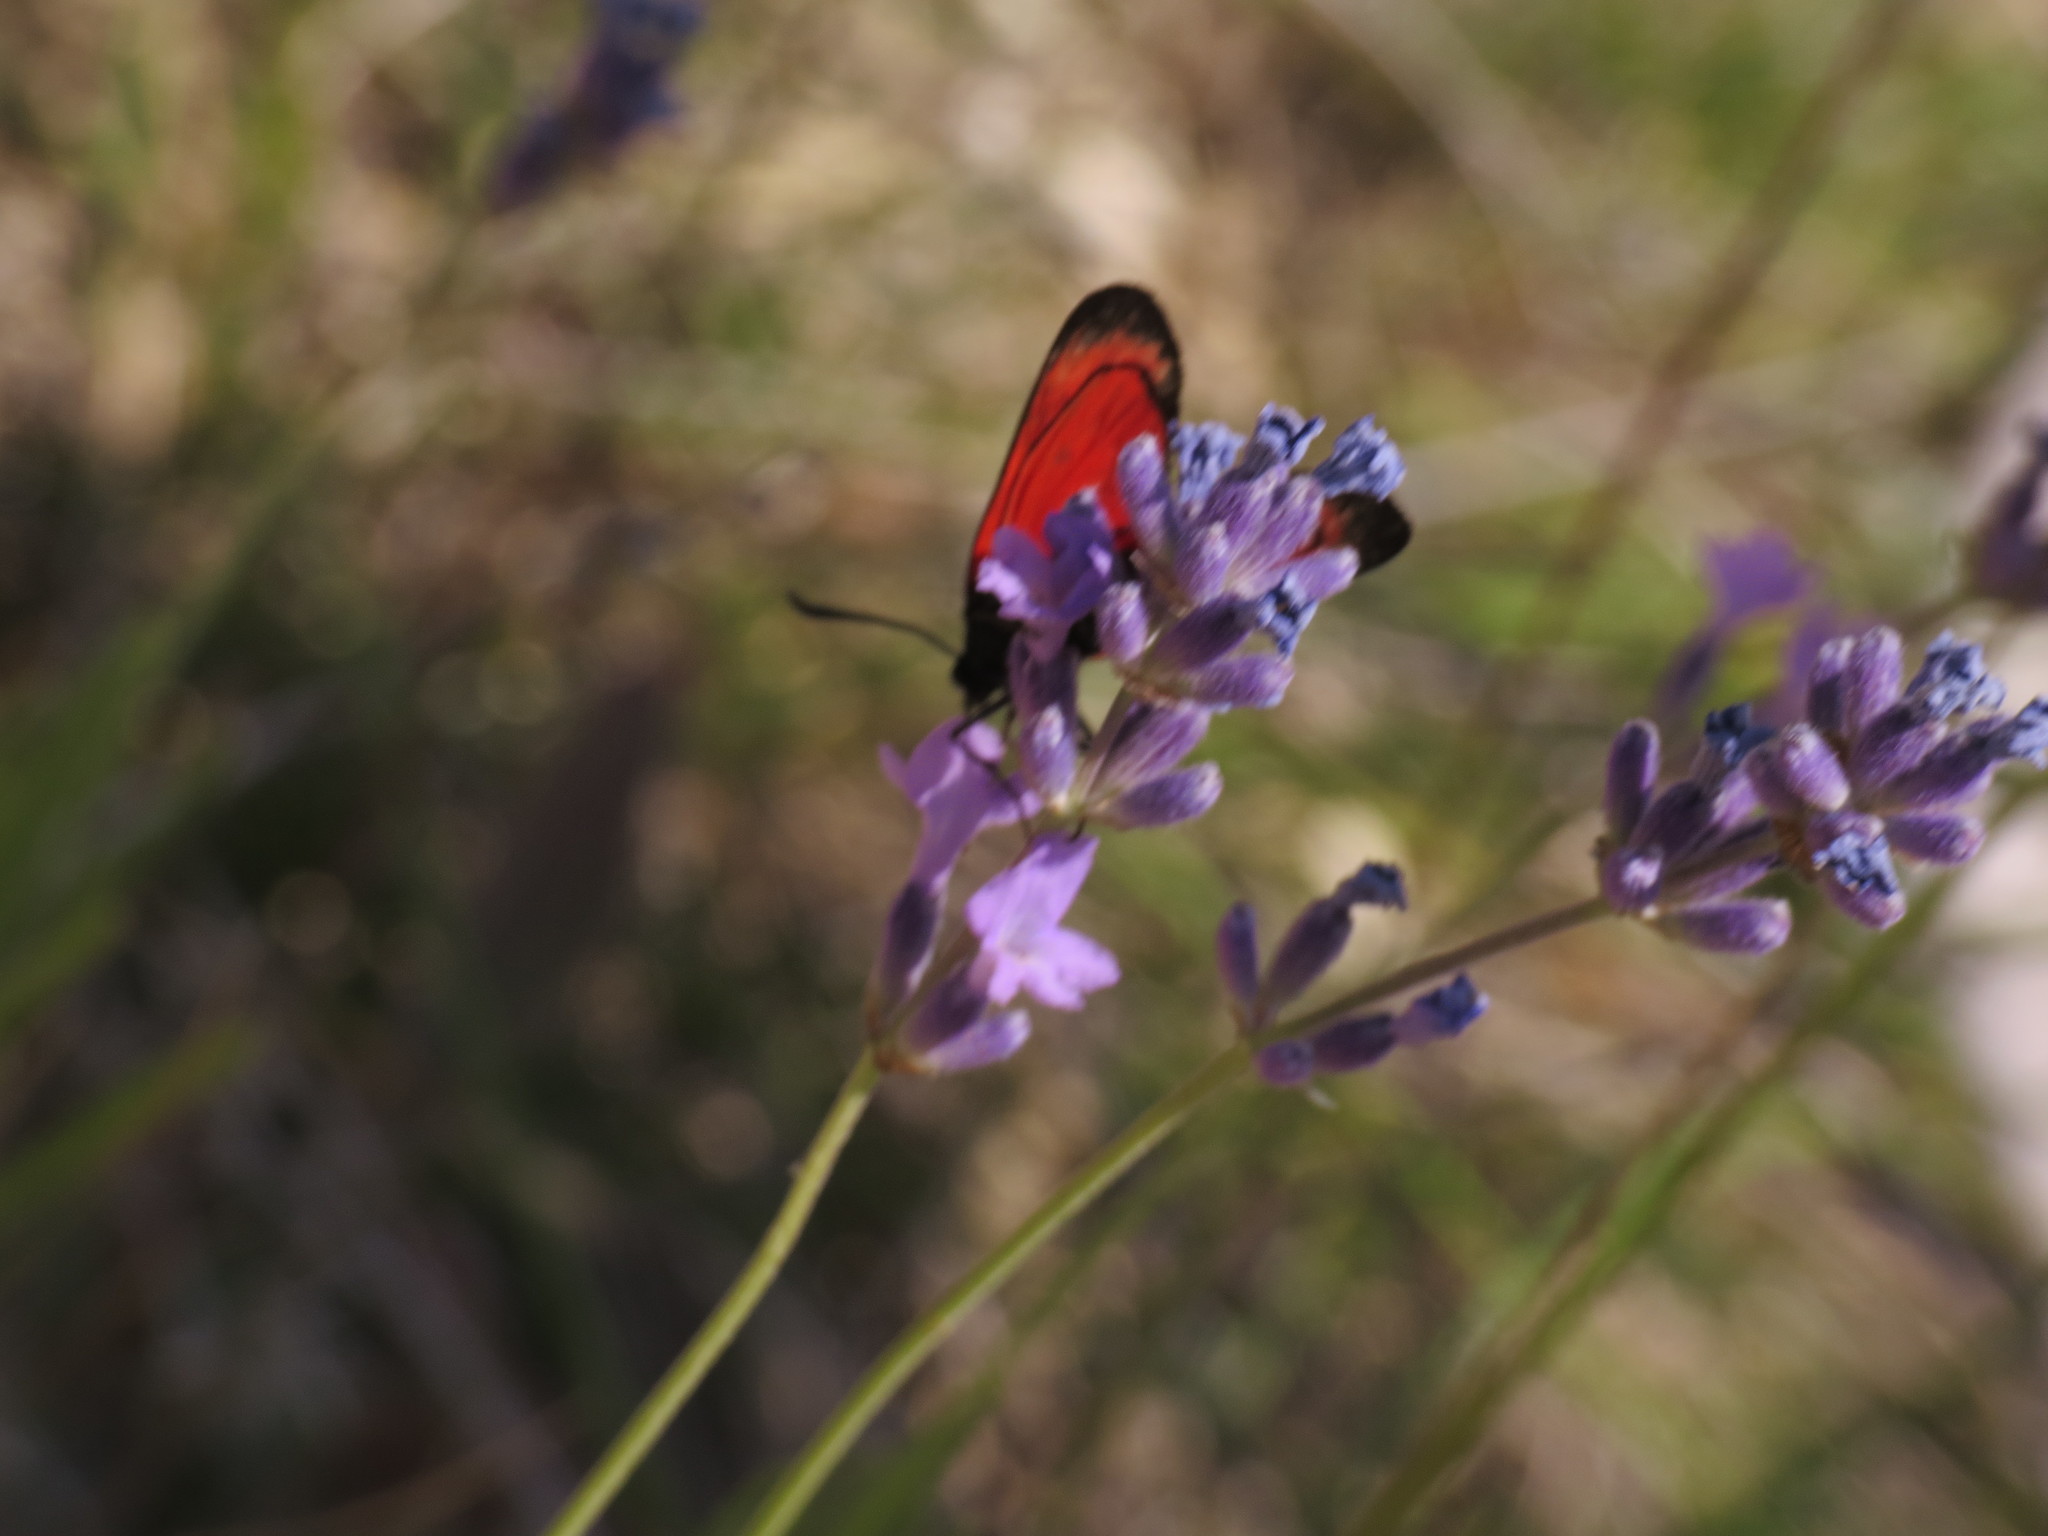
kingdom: Animalia
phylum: Arthropoda
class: Insecta
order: Lepidoptera
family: Zygaenidae
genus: Zygaena
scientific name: Zygaena transalpina
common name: Southern six spot burnet
